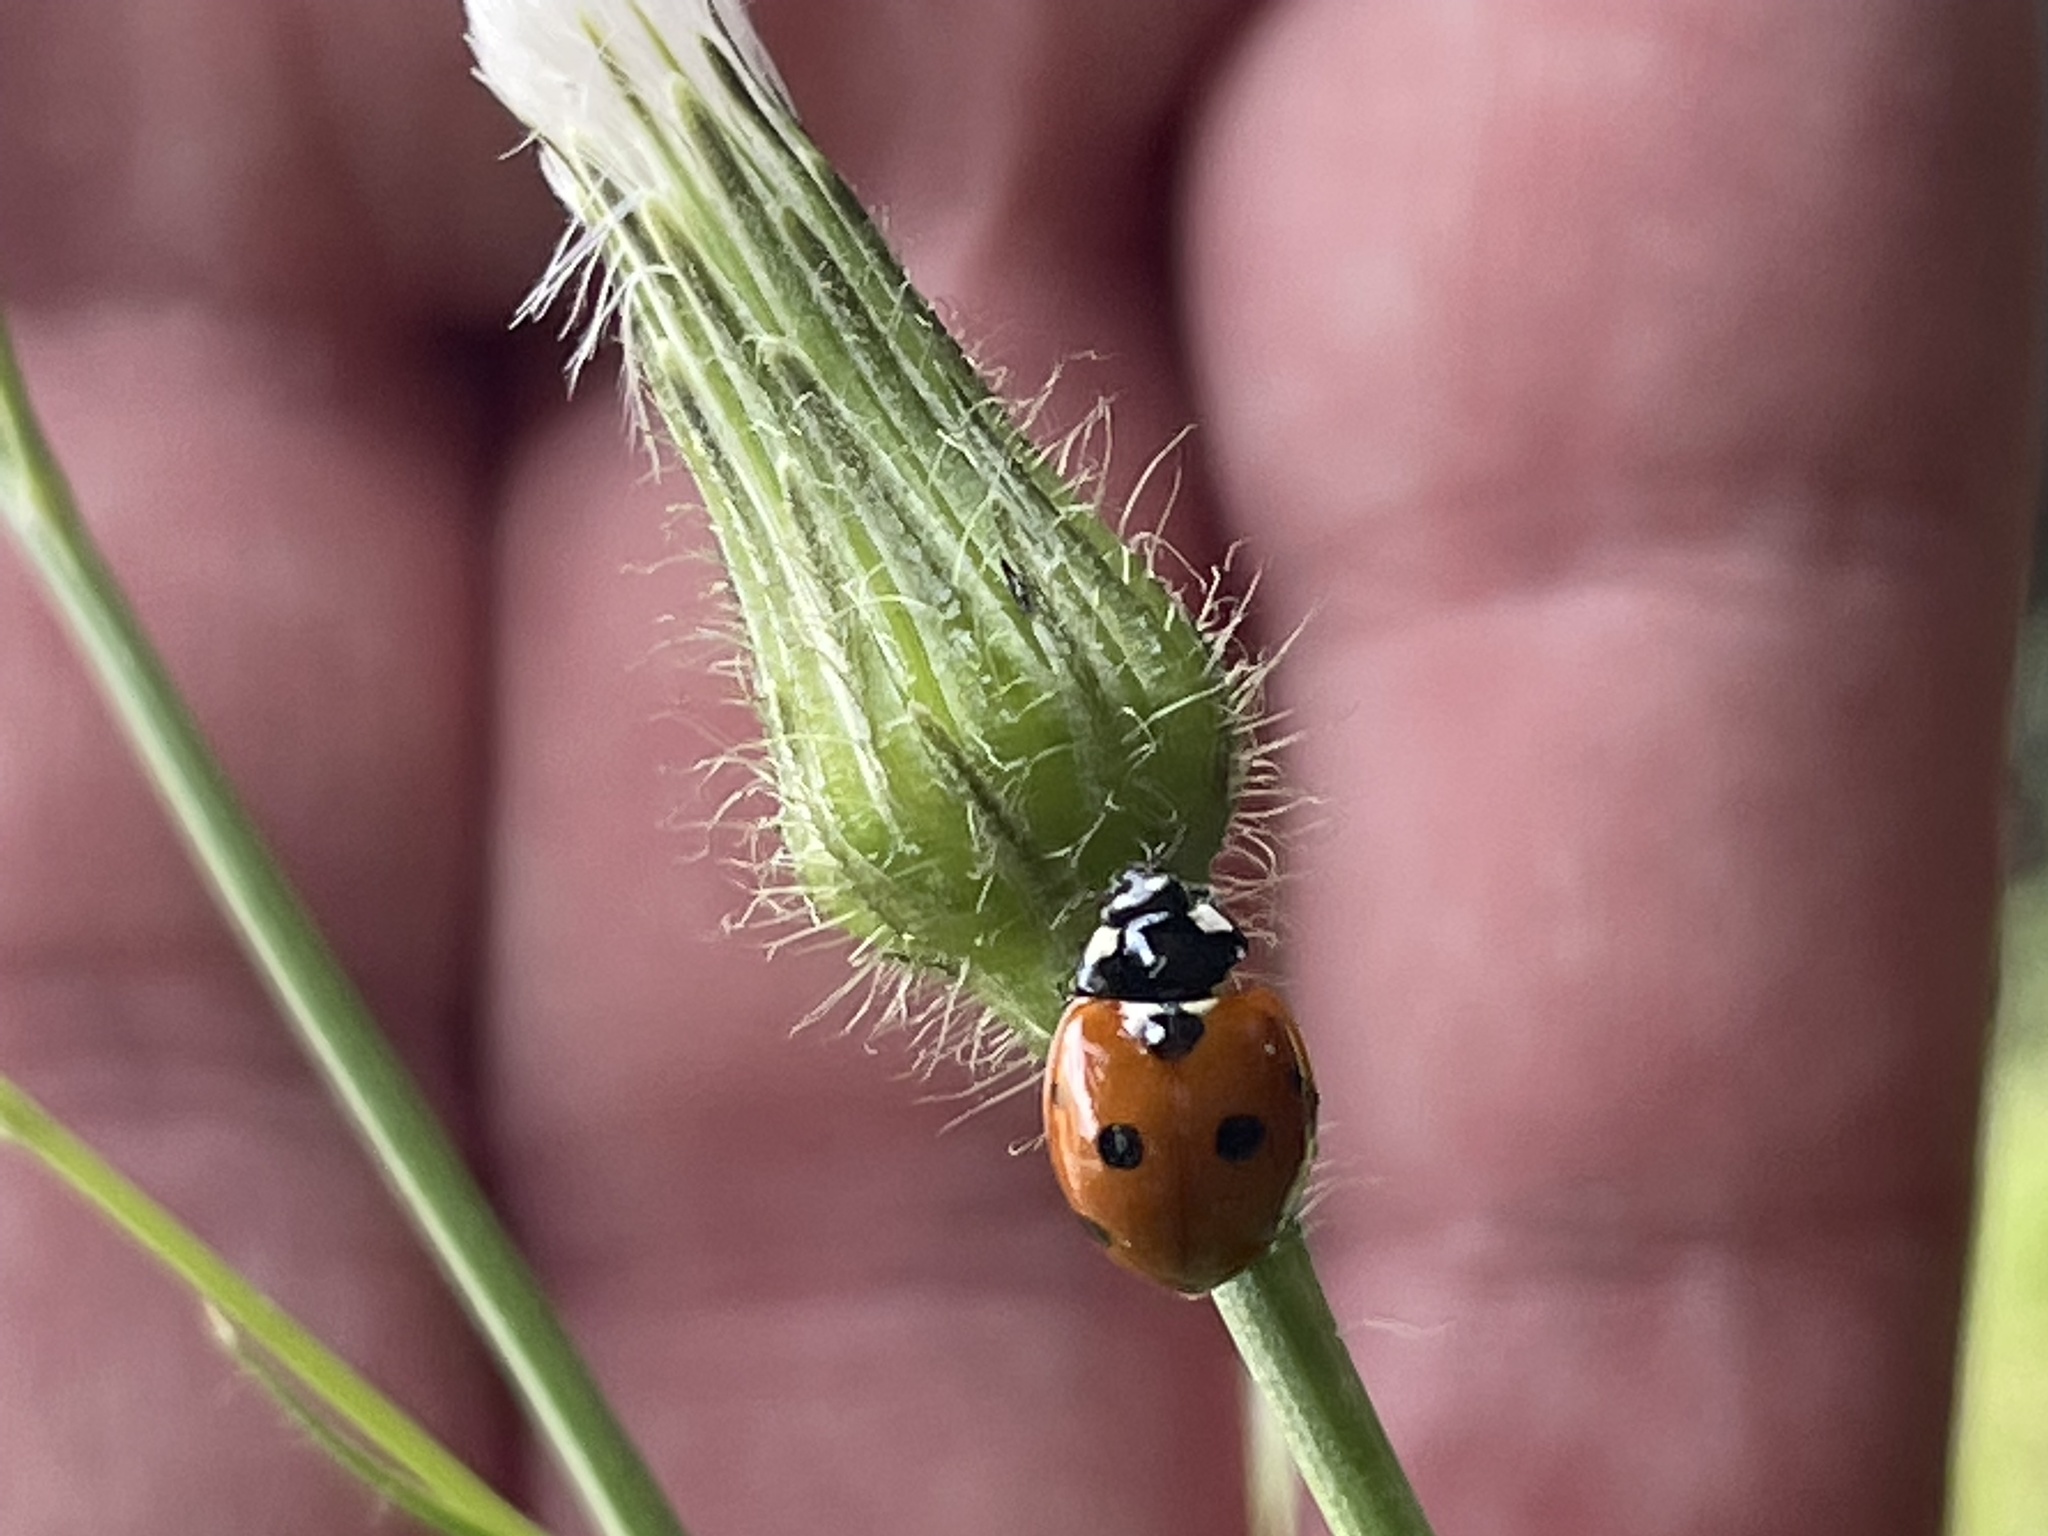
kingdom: Animalia
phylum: Arthropoda
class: Insecta
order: Coleoptera
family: Coccinellidae
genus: Coccinella
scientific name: Coccinella septempunctata
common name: Sevenspotted lady beetle
